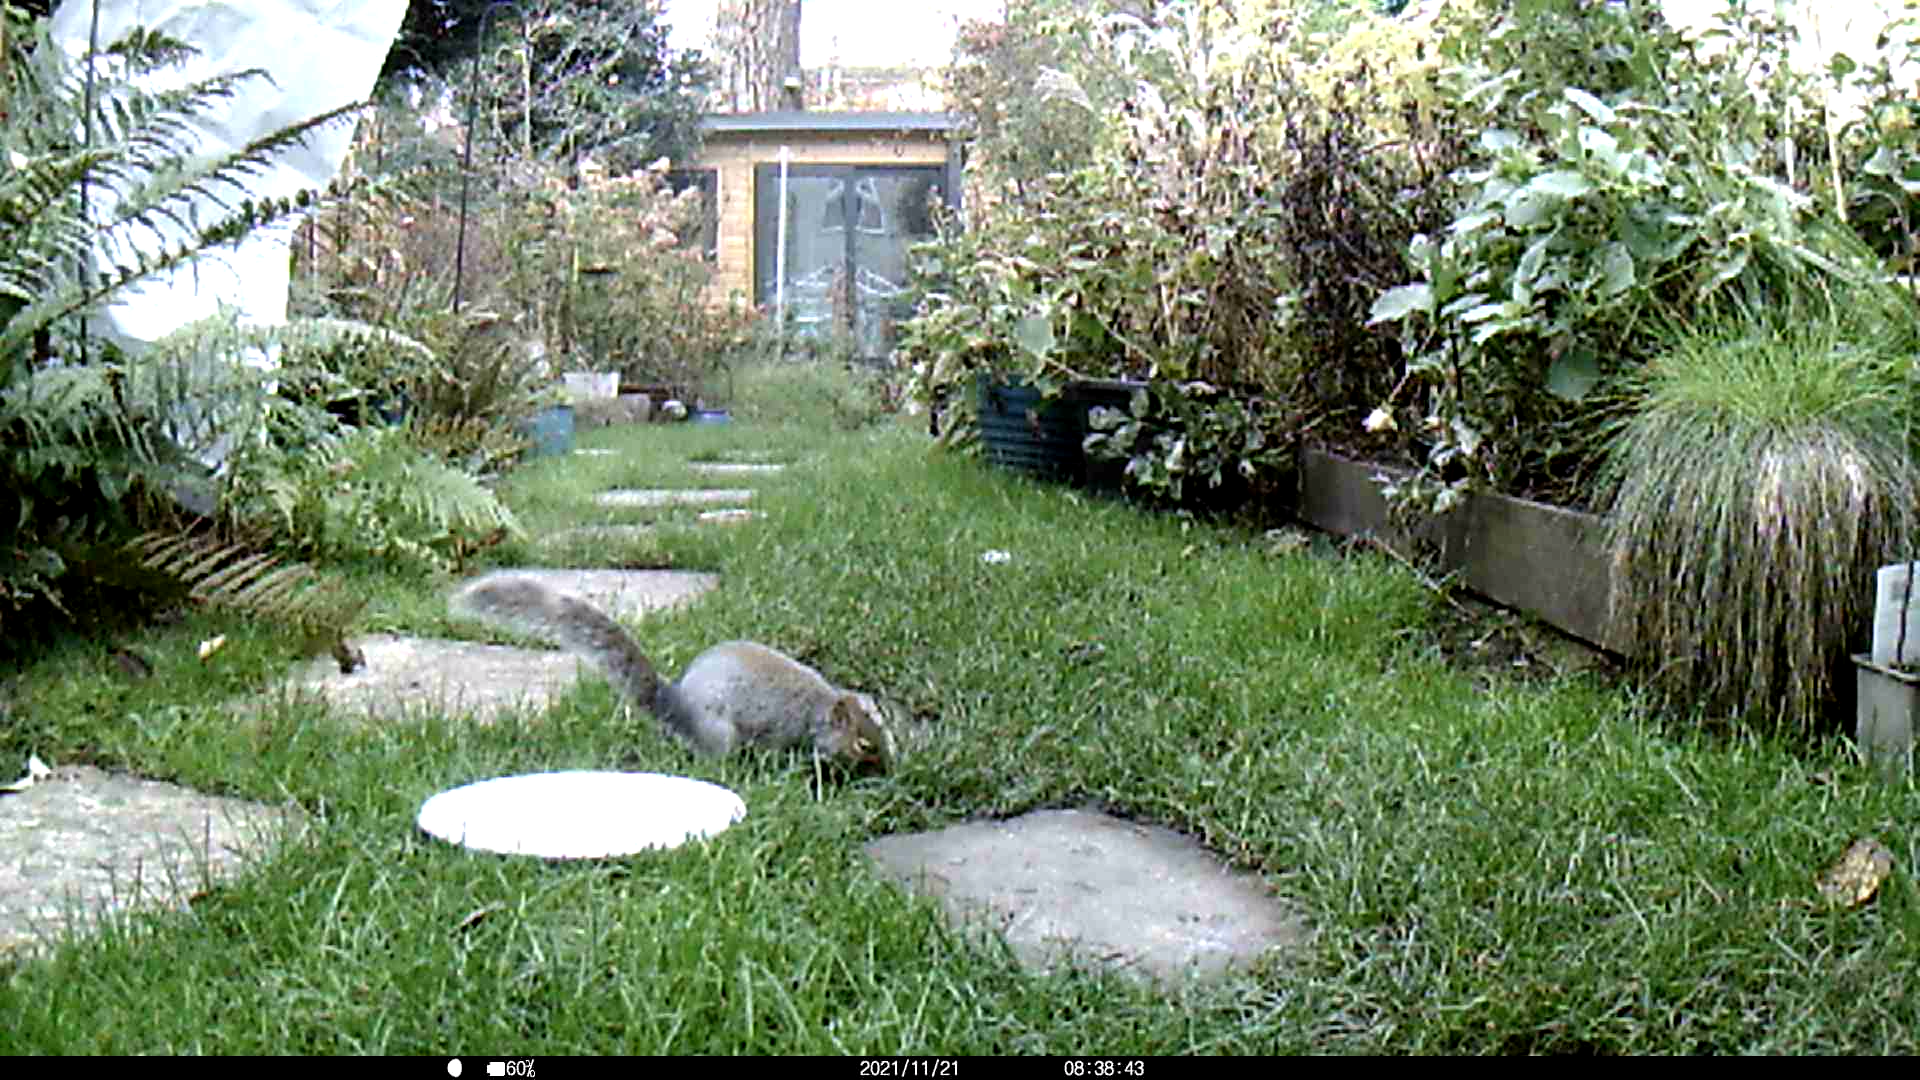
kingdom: Animalia
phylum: Chordata
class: Mammalia
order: Rodentia
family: Sciuridae
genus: Sciurus
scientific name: Sciurus carolinensis
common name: Eastern gray squirrel
